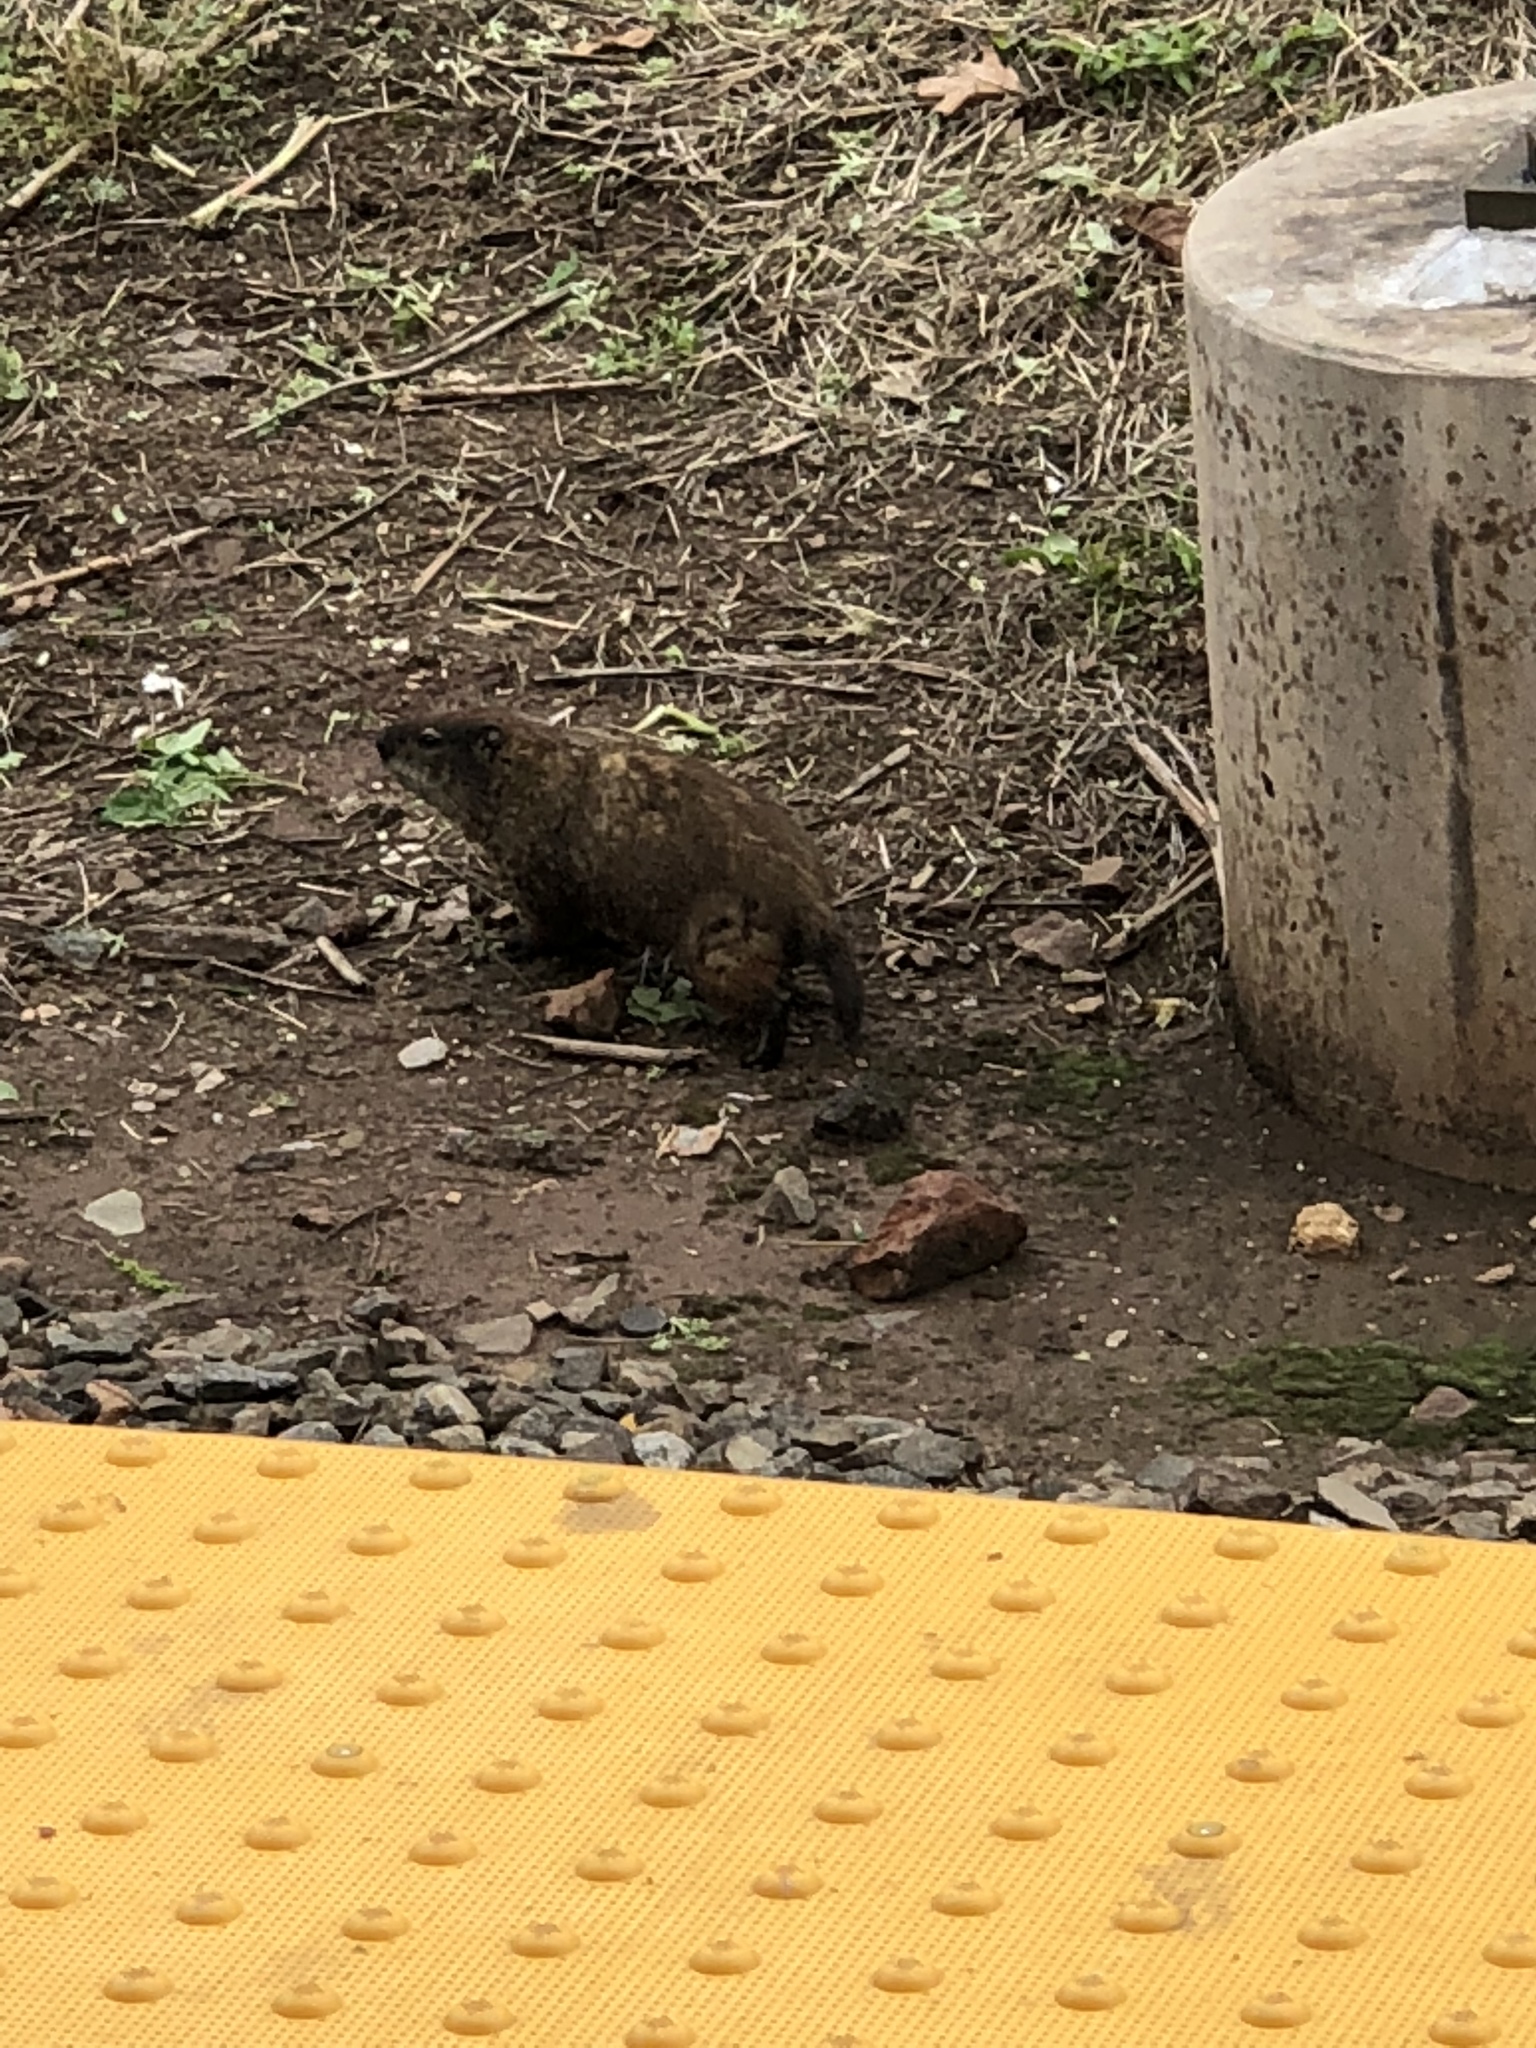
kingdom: Animalia
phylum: Chordata
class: Mammalia
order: Rodentia
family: Sciuridae
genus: Marmota
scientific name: Marmota monax
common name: Groundhog
